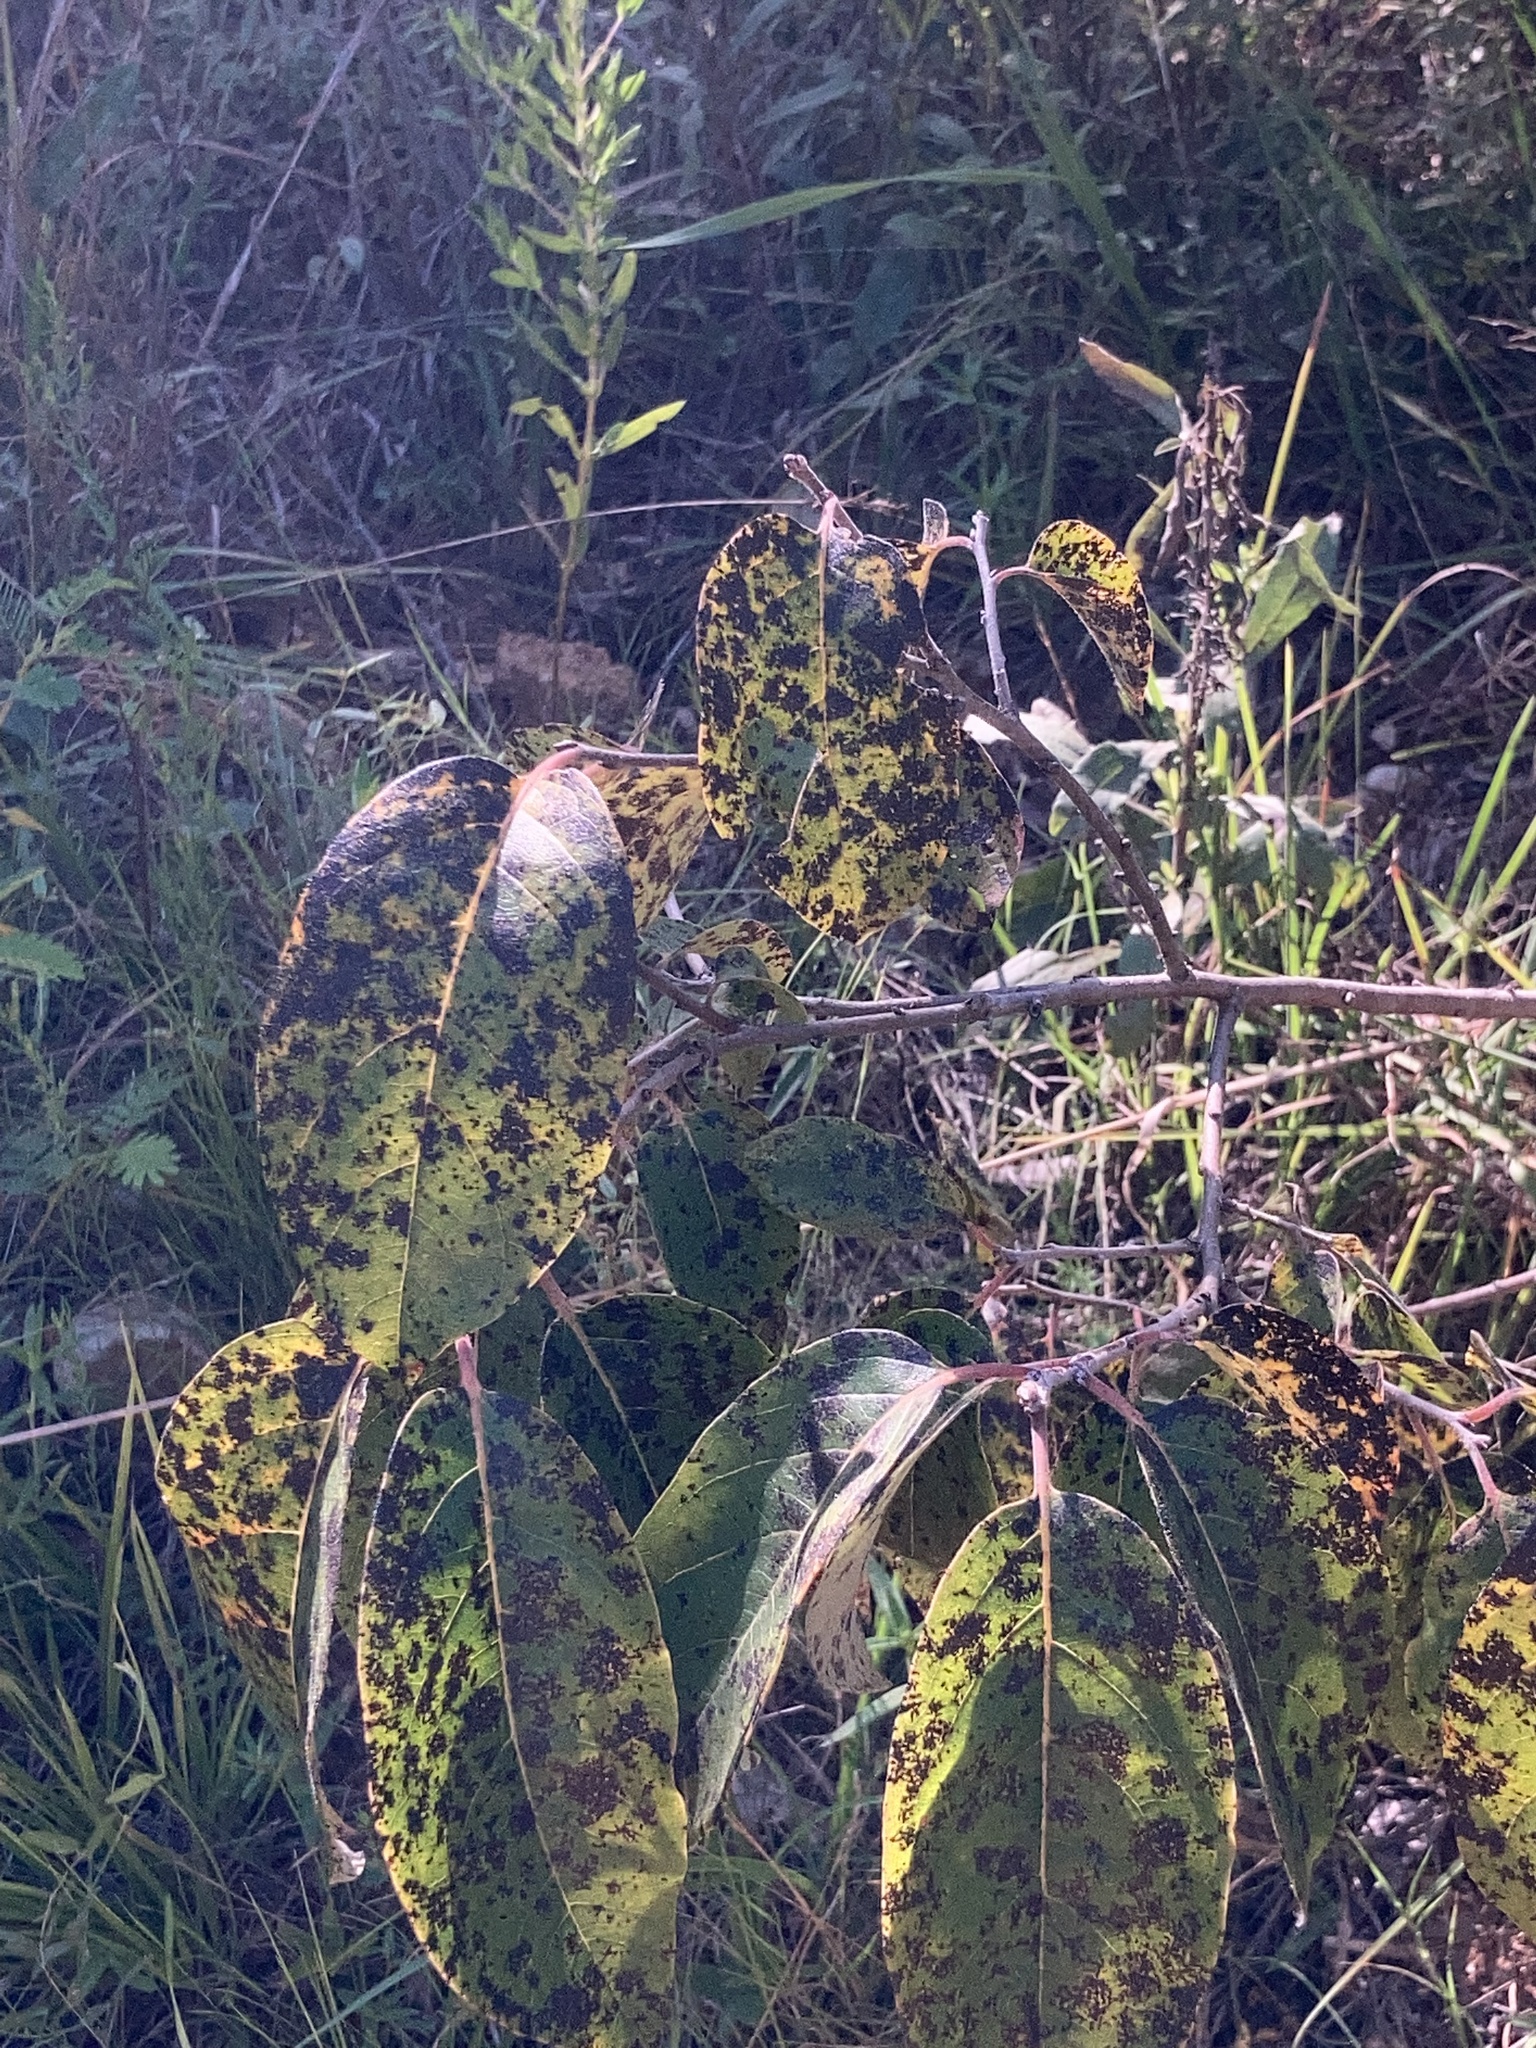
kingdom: Plantae
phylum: Tracheophyta
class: Magnoliopsida
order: Ericales
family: Ebenaceae
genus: Diospyros
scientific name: Diospyros virginiana
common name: Persimmon
